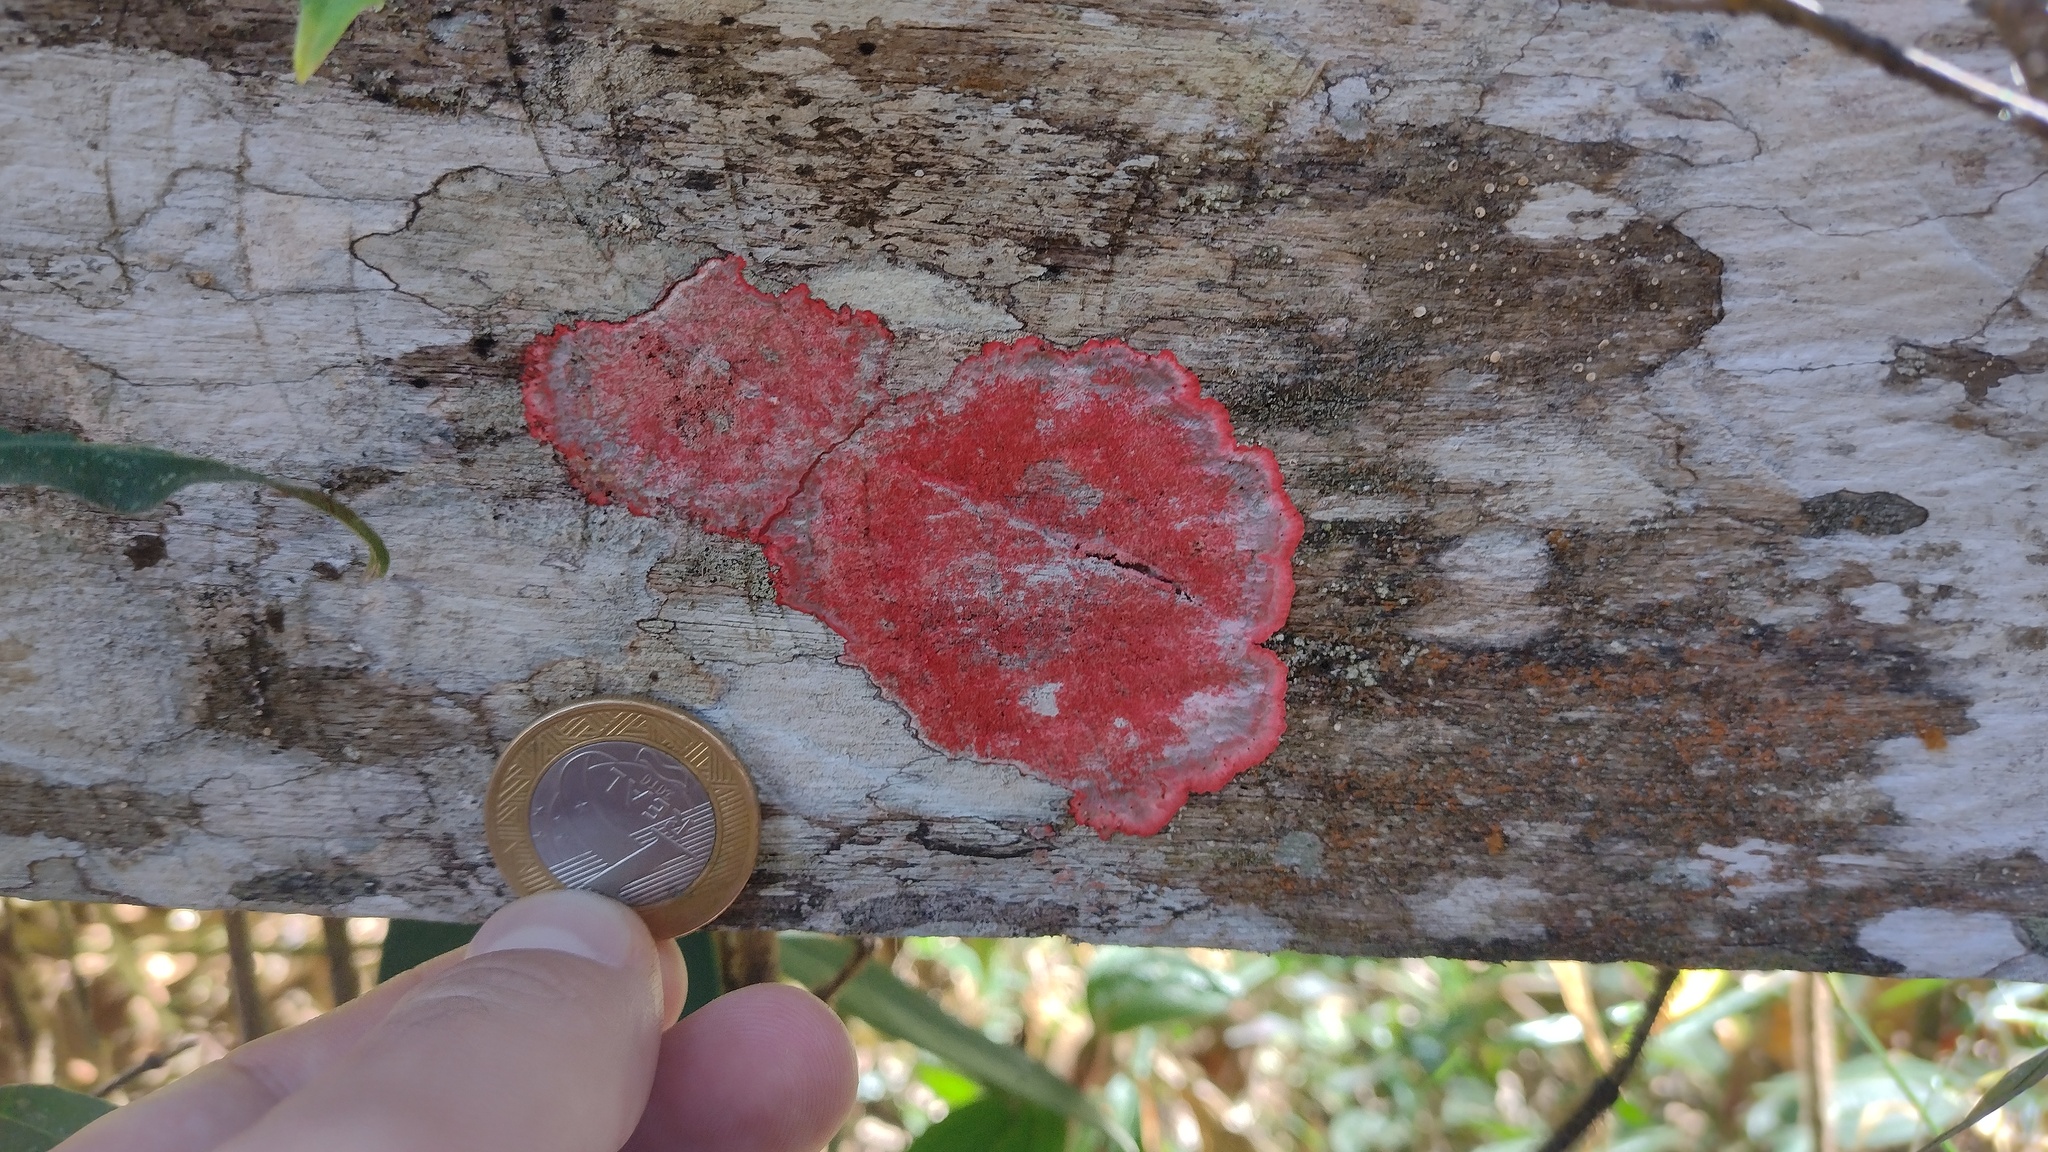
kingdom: Fungi
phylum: Ascomycota
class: Arthoniomycetes
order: Arthoniales
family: Arthoniaceae
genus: Herpothallon
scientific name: Herpothallon rubrocinctum
